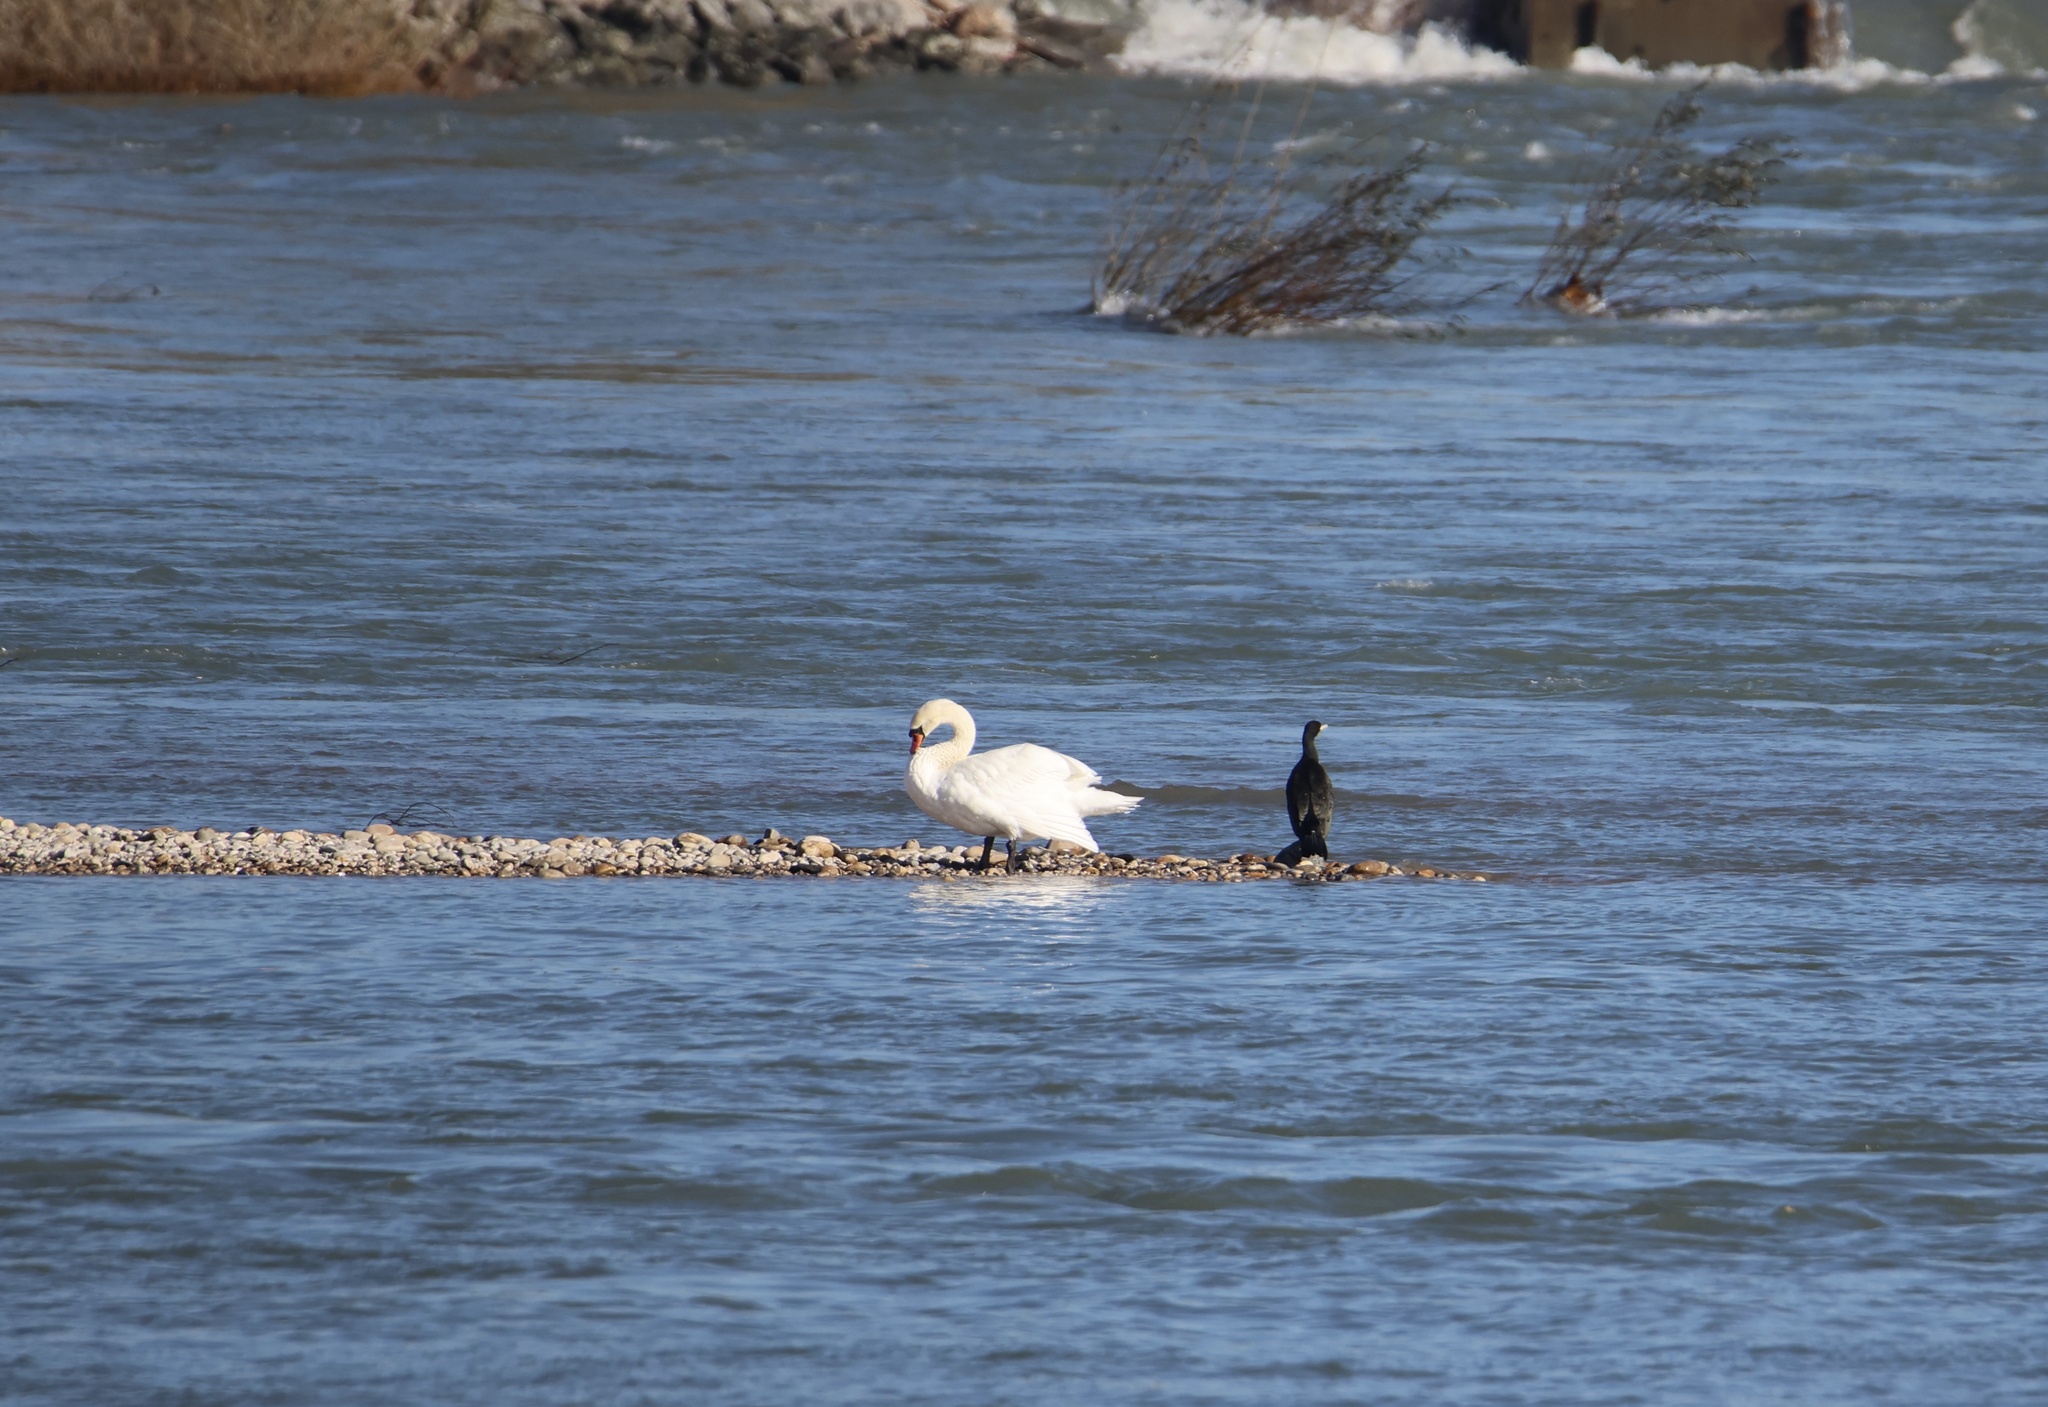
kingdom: Animalia
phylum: Chordata
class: Aves
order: Anseriformes
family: Anatidae
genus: Cygnus
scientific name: Cygnus olor
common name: Mute swan
